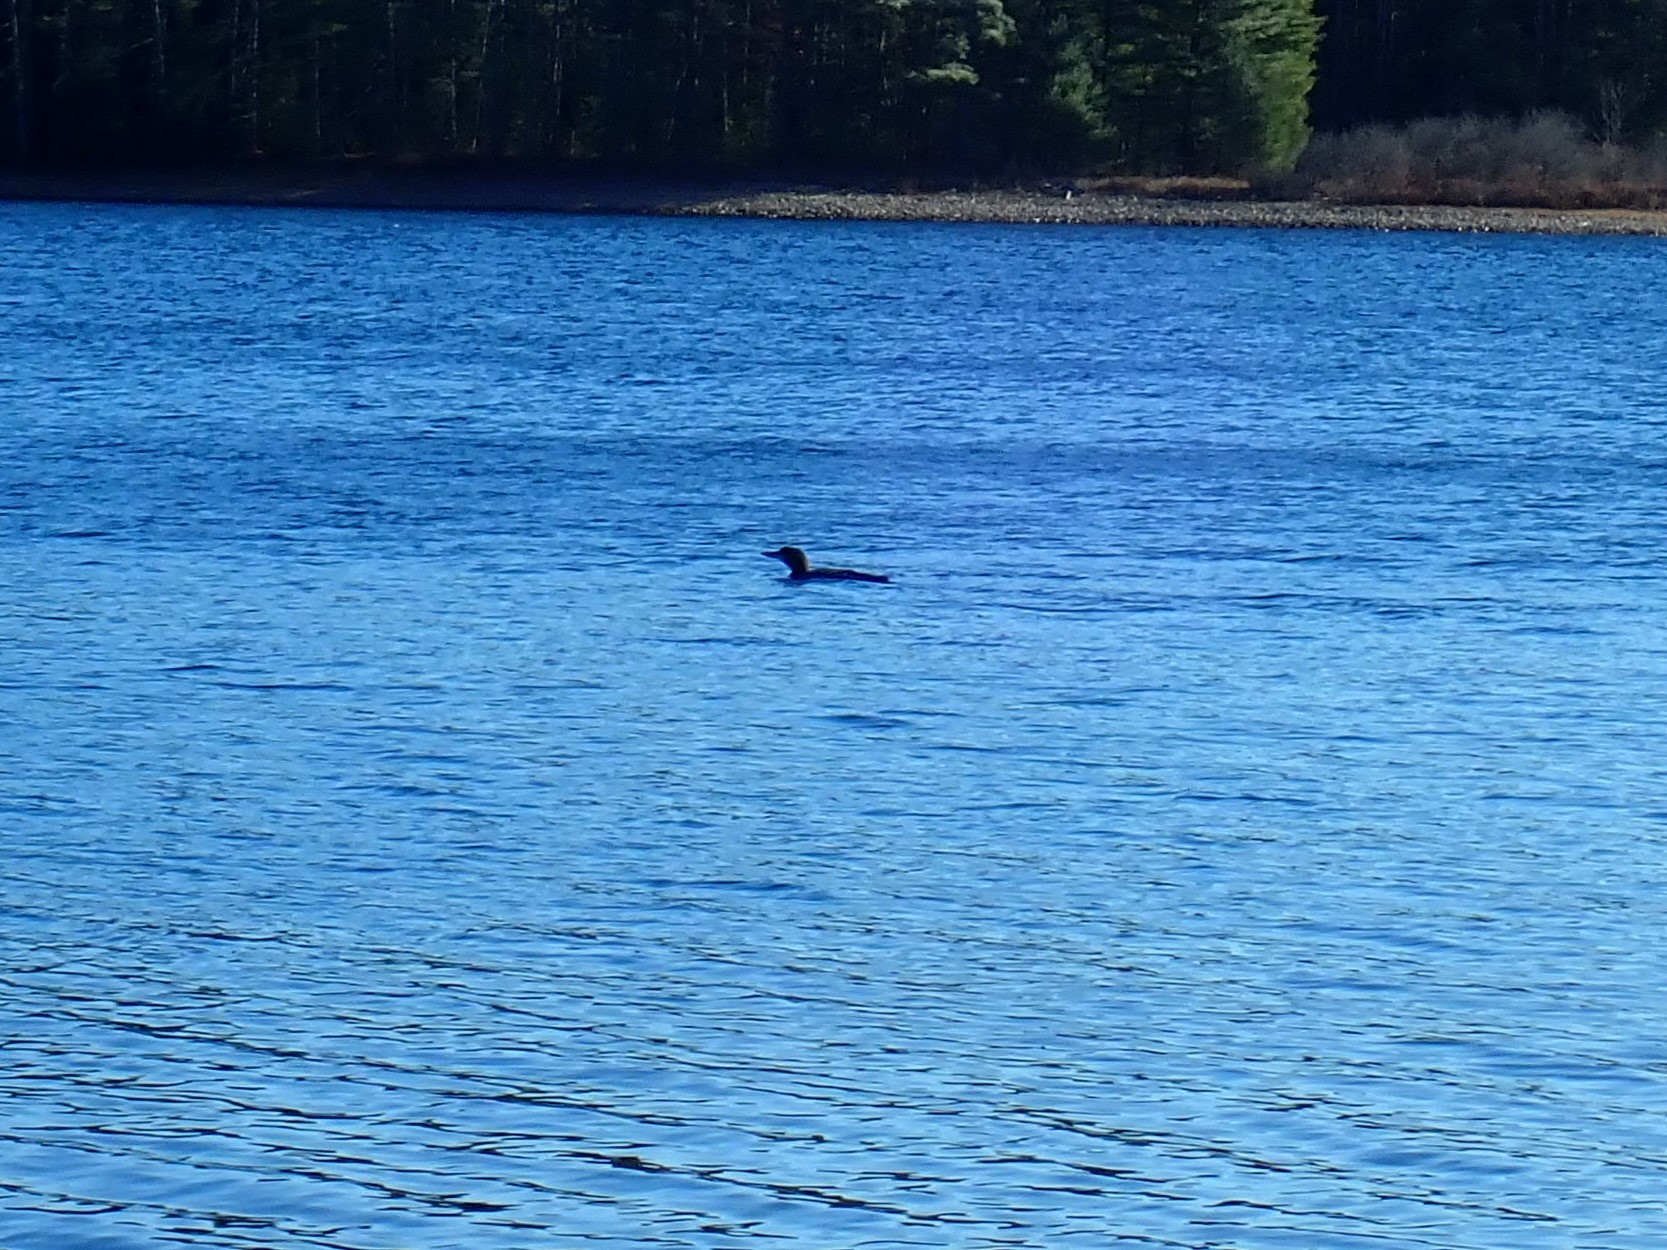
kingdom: Animalia
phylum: Chordata
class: Aves
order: Gaviiformes
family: Gaviidae
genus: Gavia
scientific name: Gavia immer
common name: Common loon
